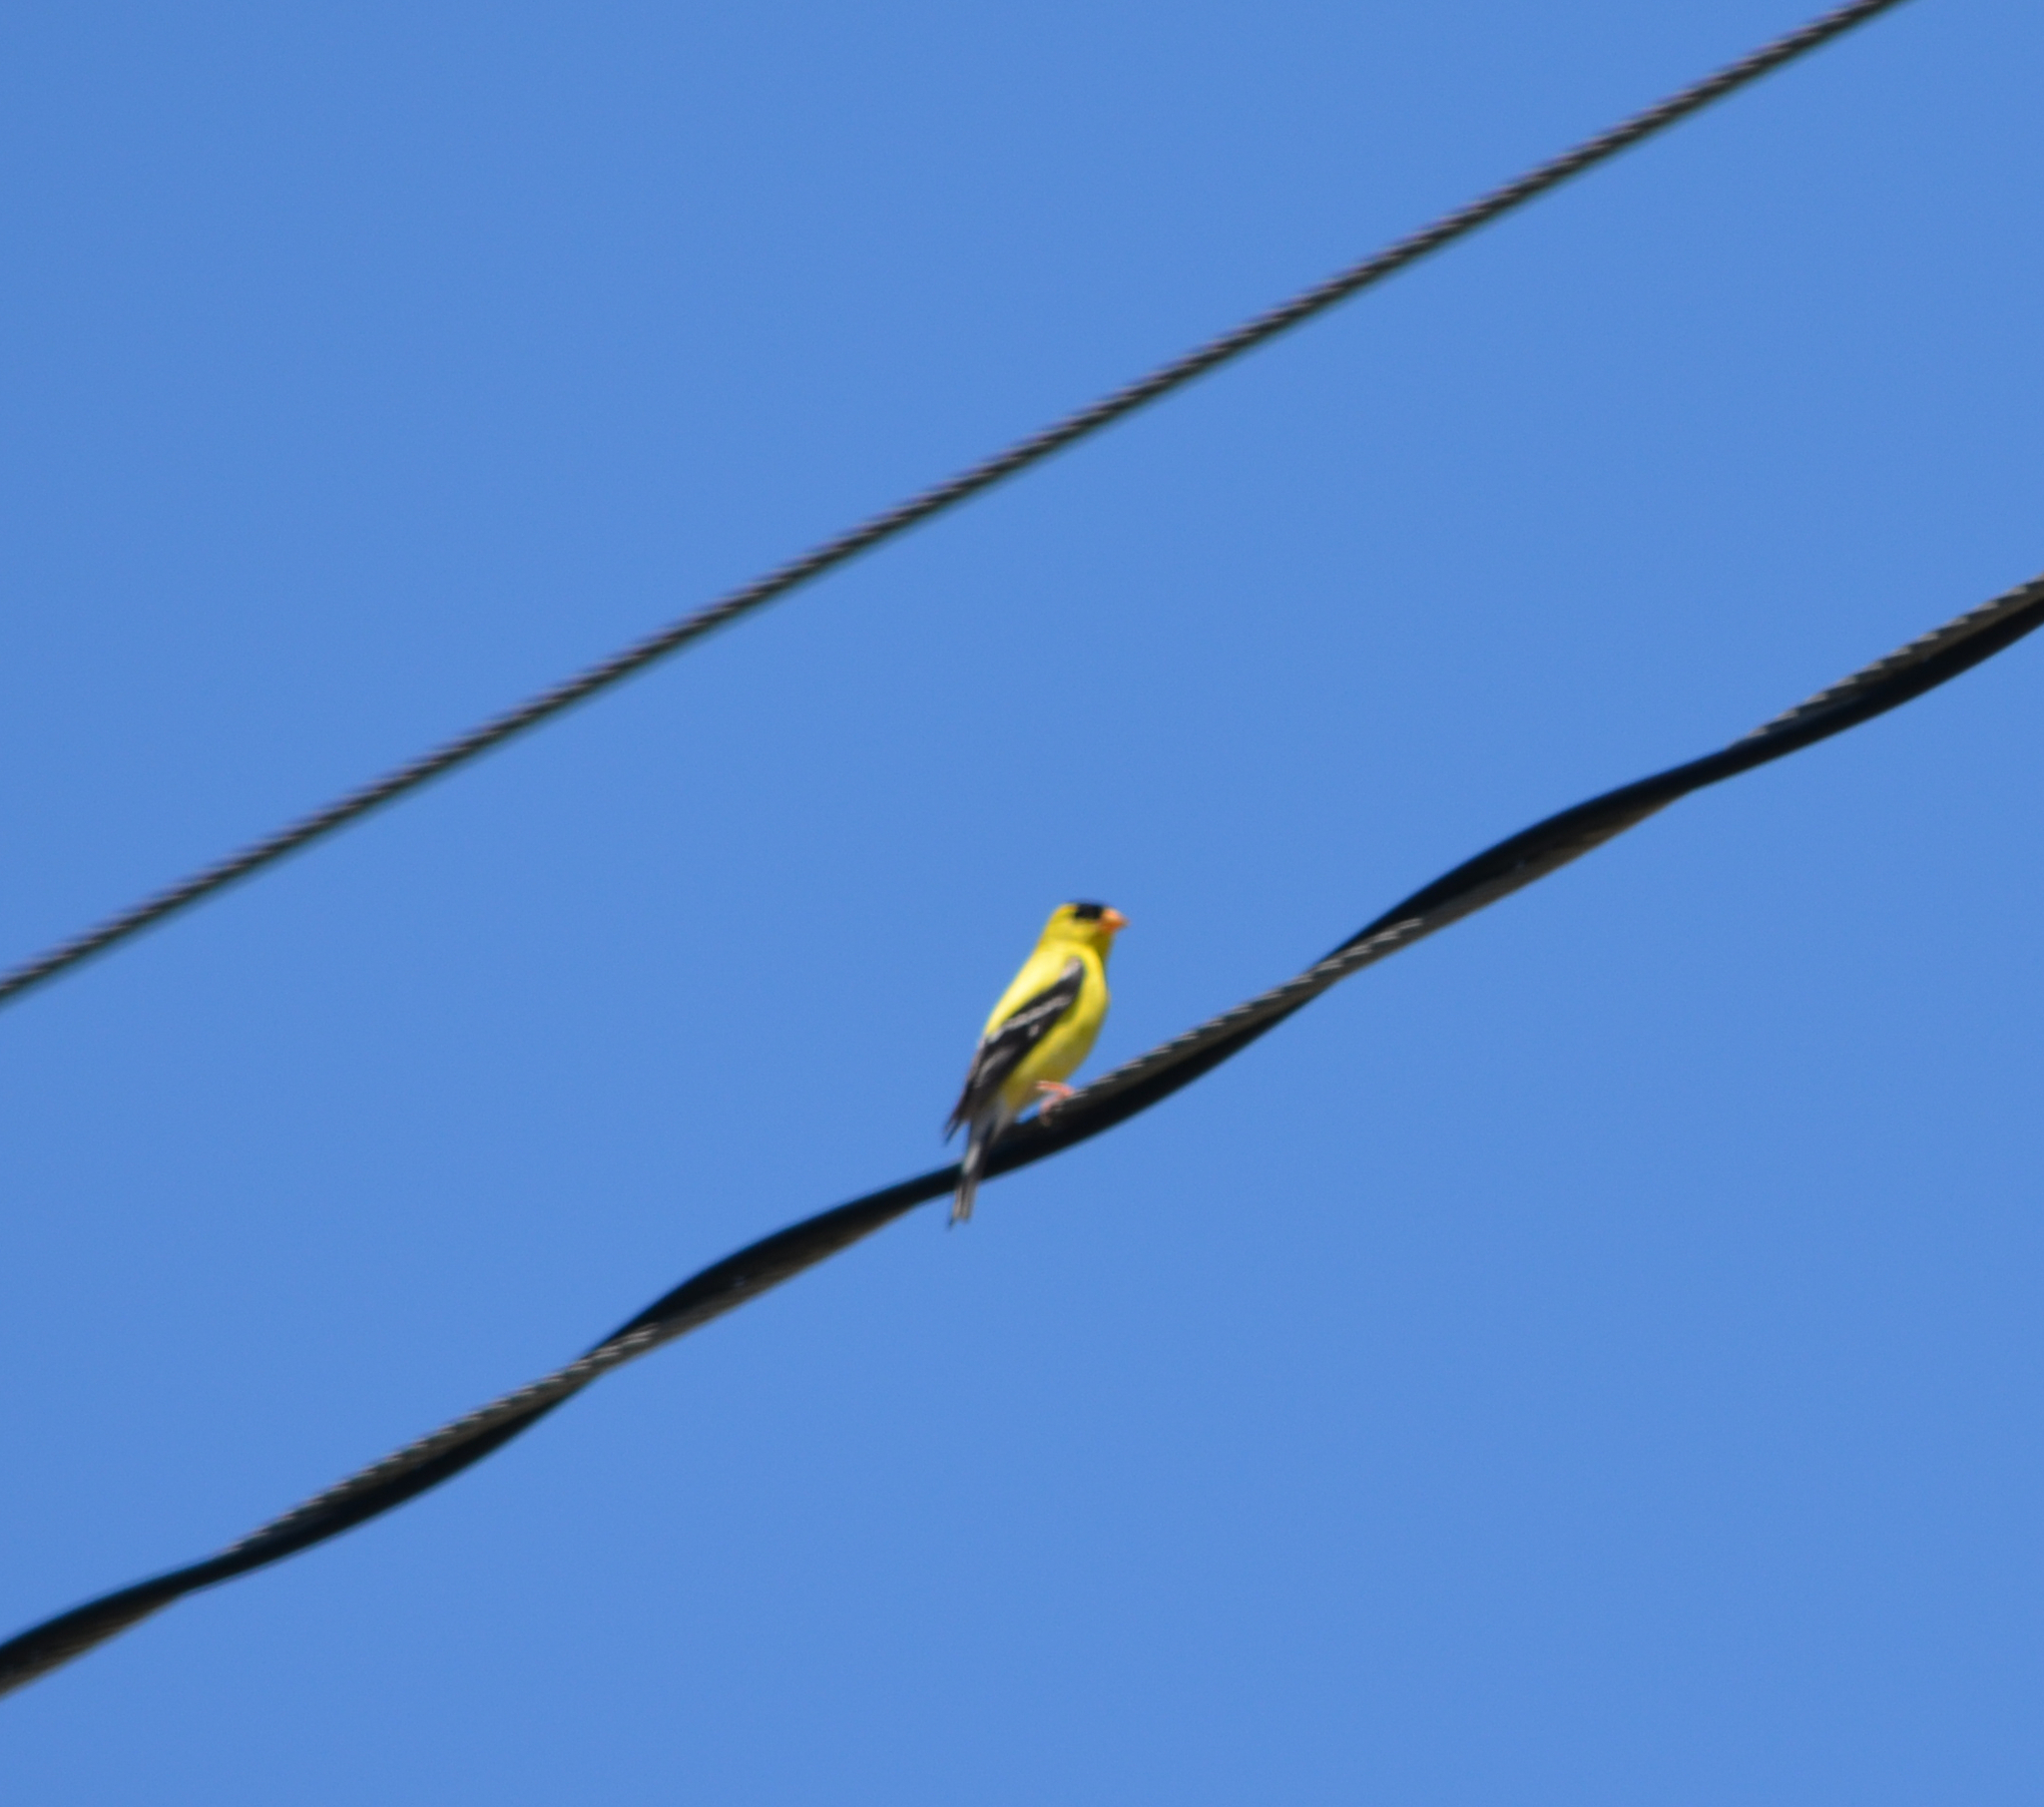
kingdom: Animalia
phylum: Chordata
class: Aves
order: Passeriformes
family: Fringillidae
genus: Spinus
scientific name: Spinus tristis
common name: American goldfinch
